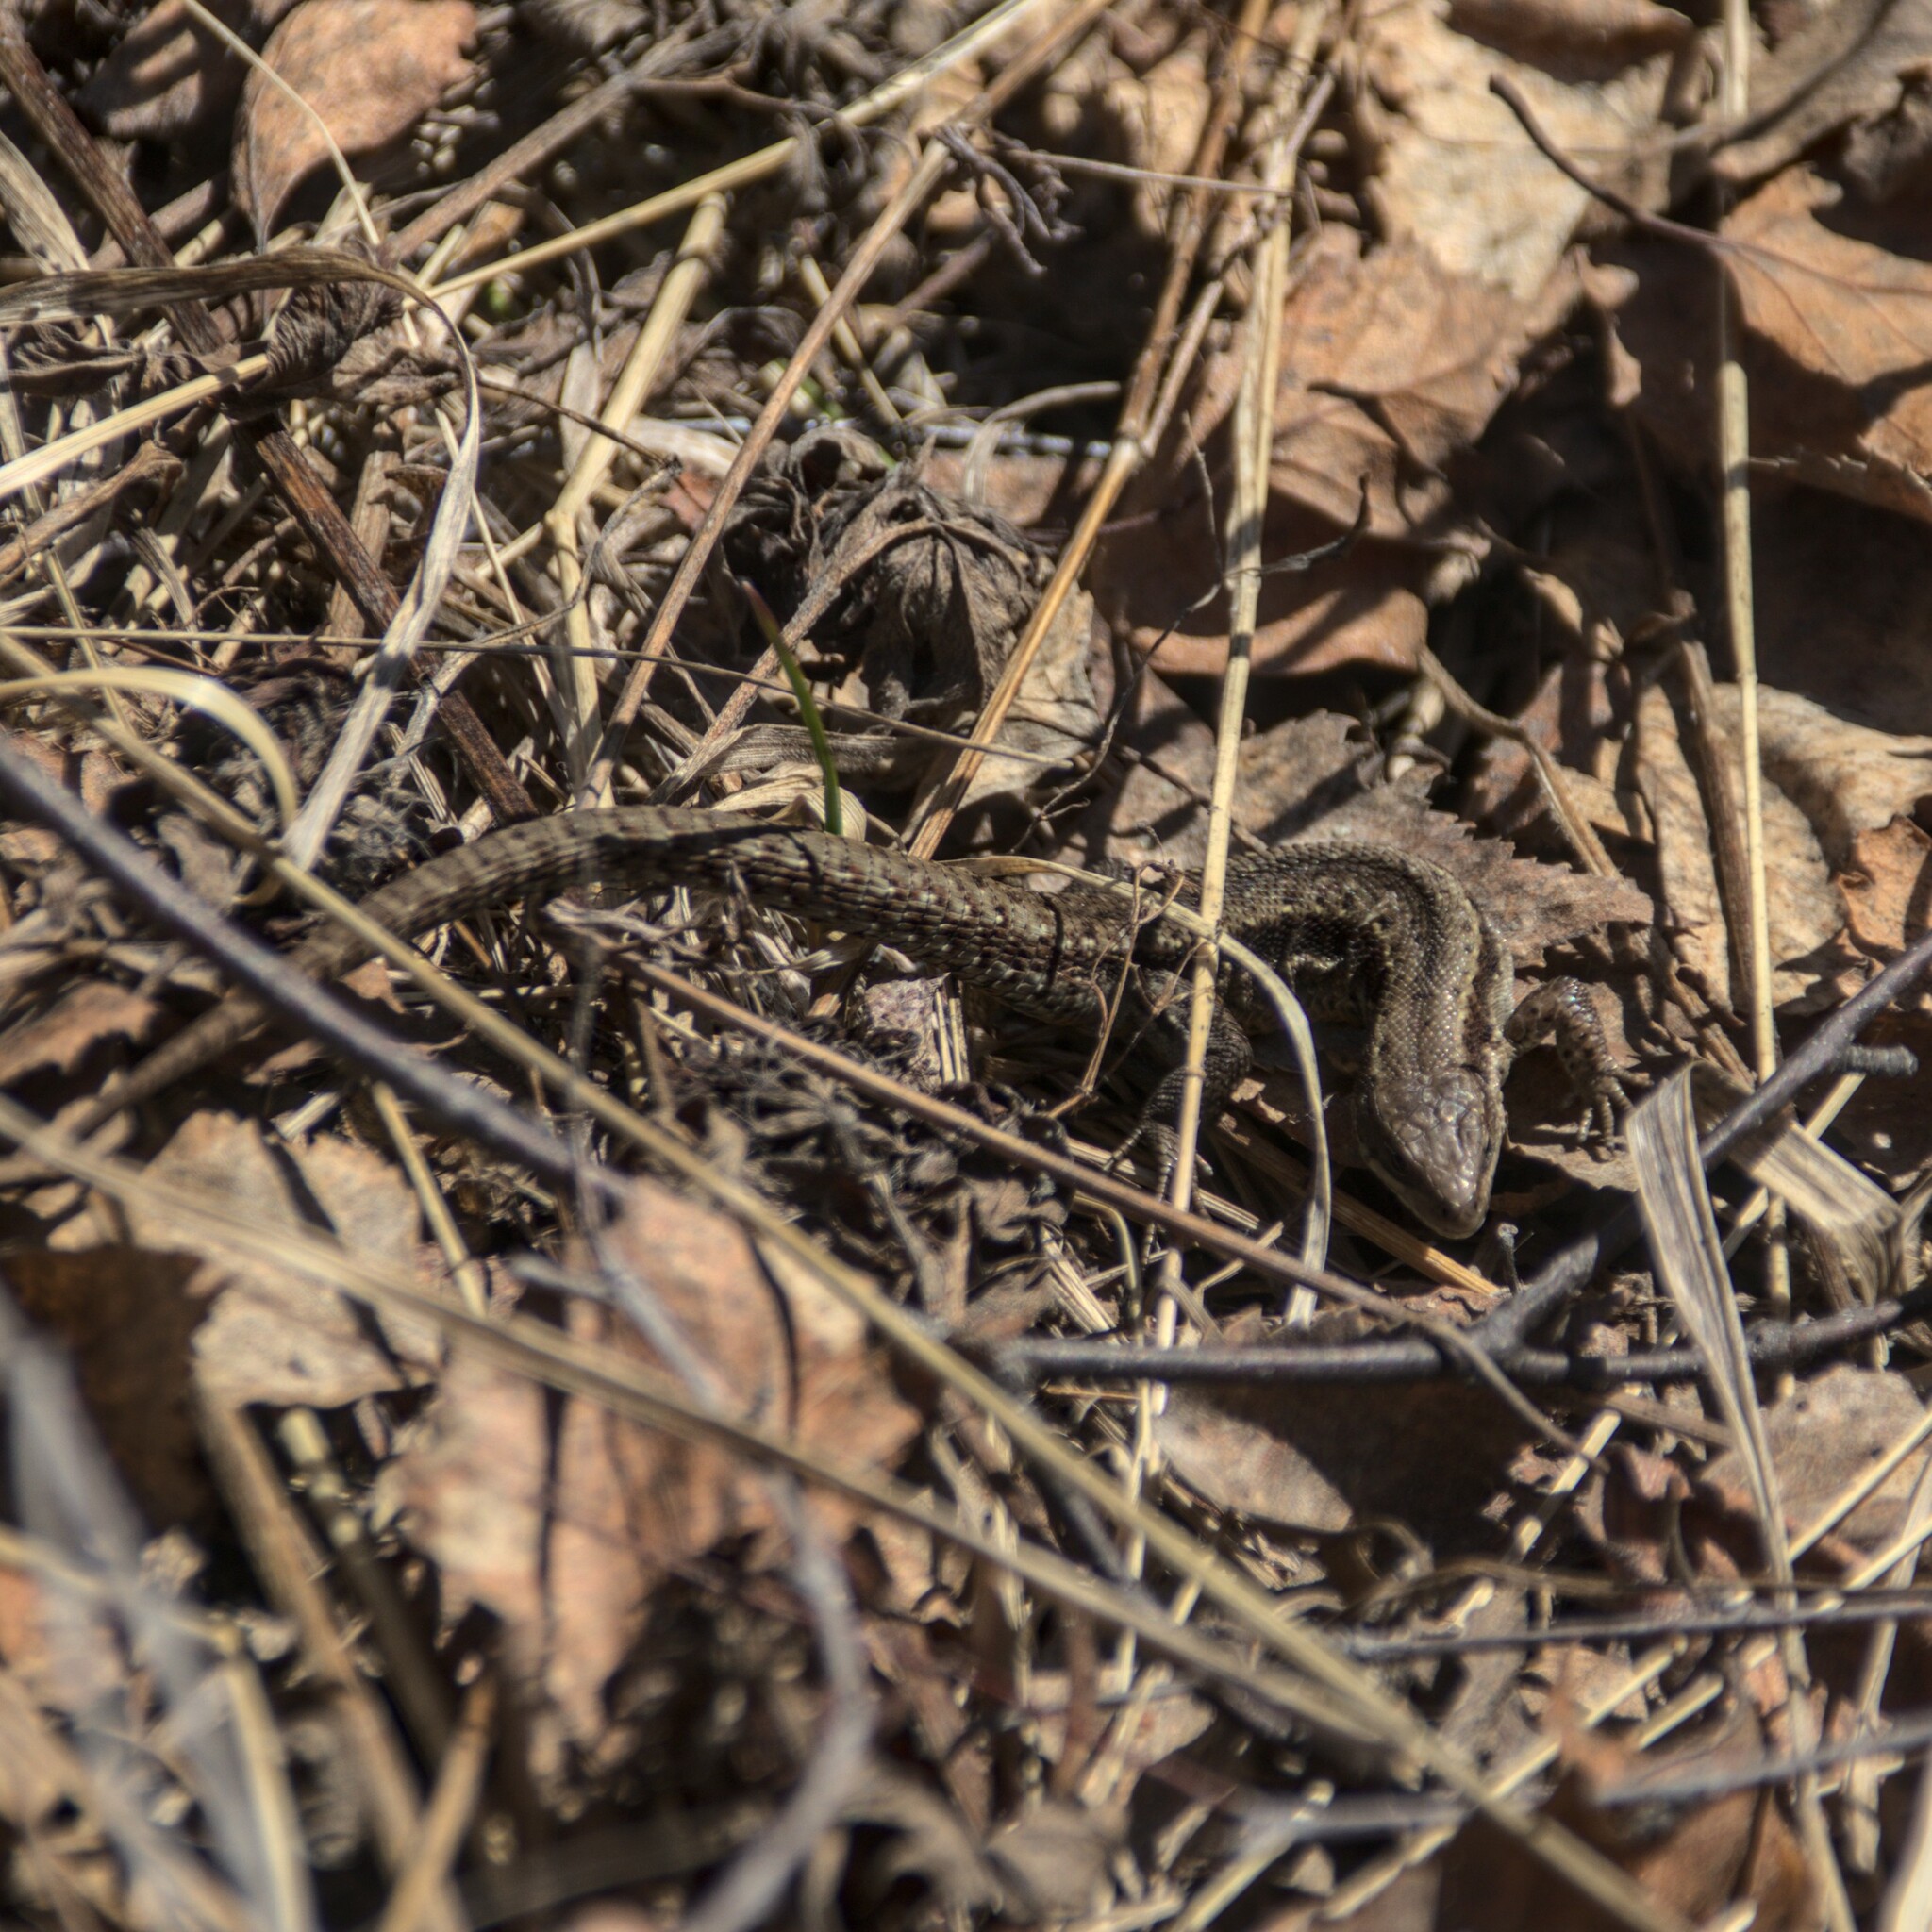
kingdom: Animalia
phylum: Chordata
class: Squamata
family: Lacertidae
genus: Zootoca
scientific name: Zootoca vivipara
